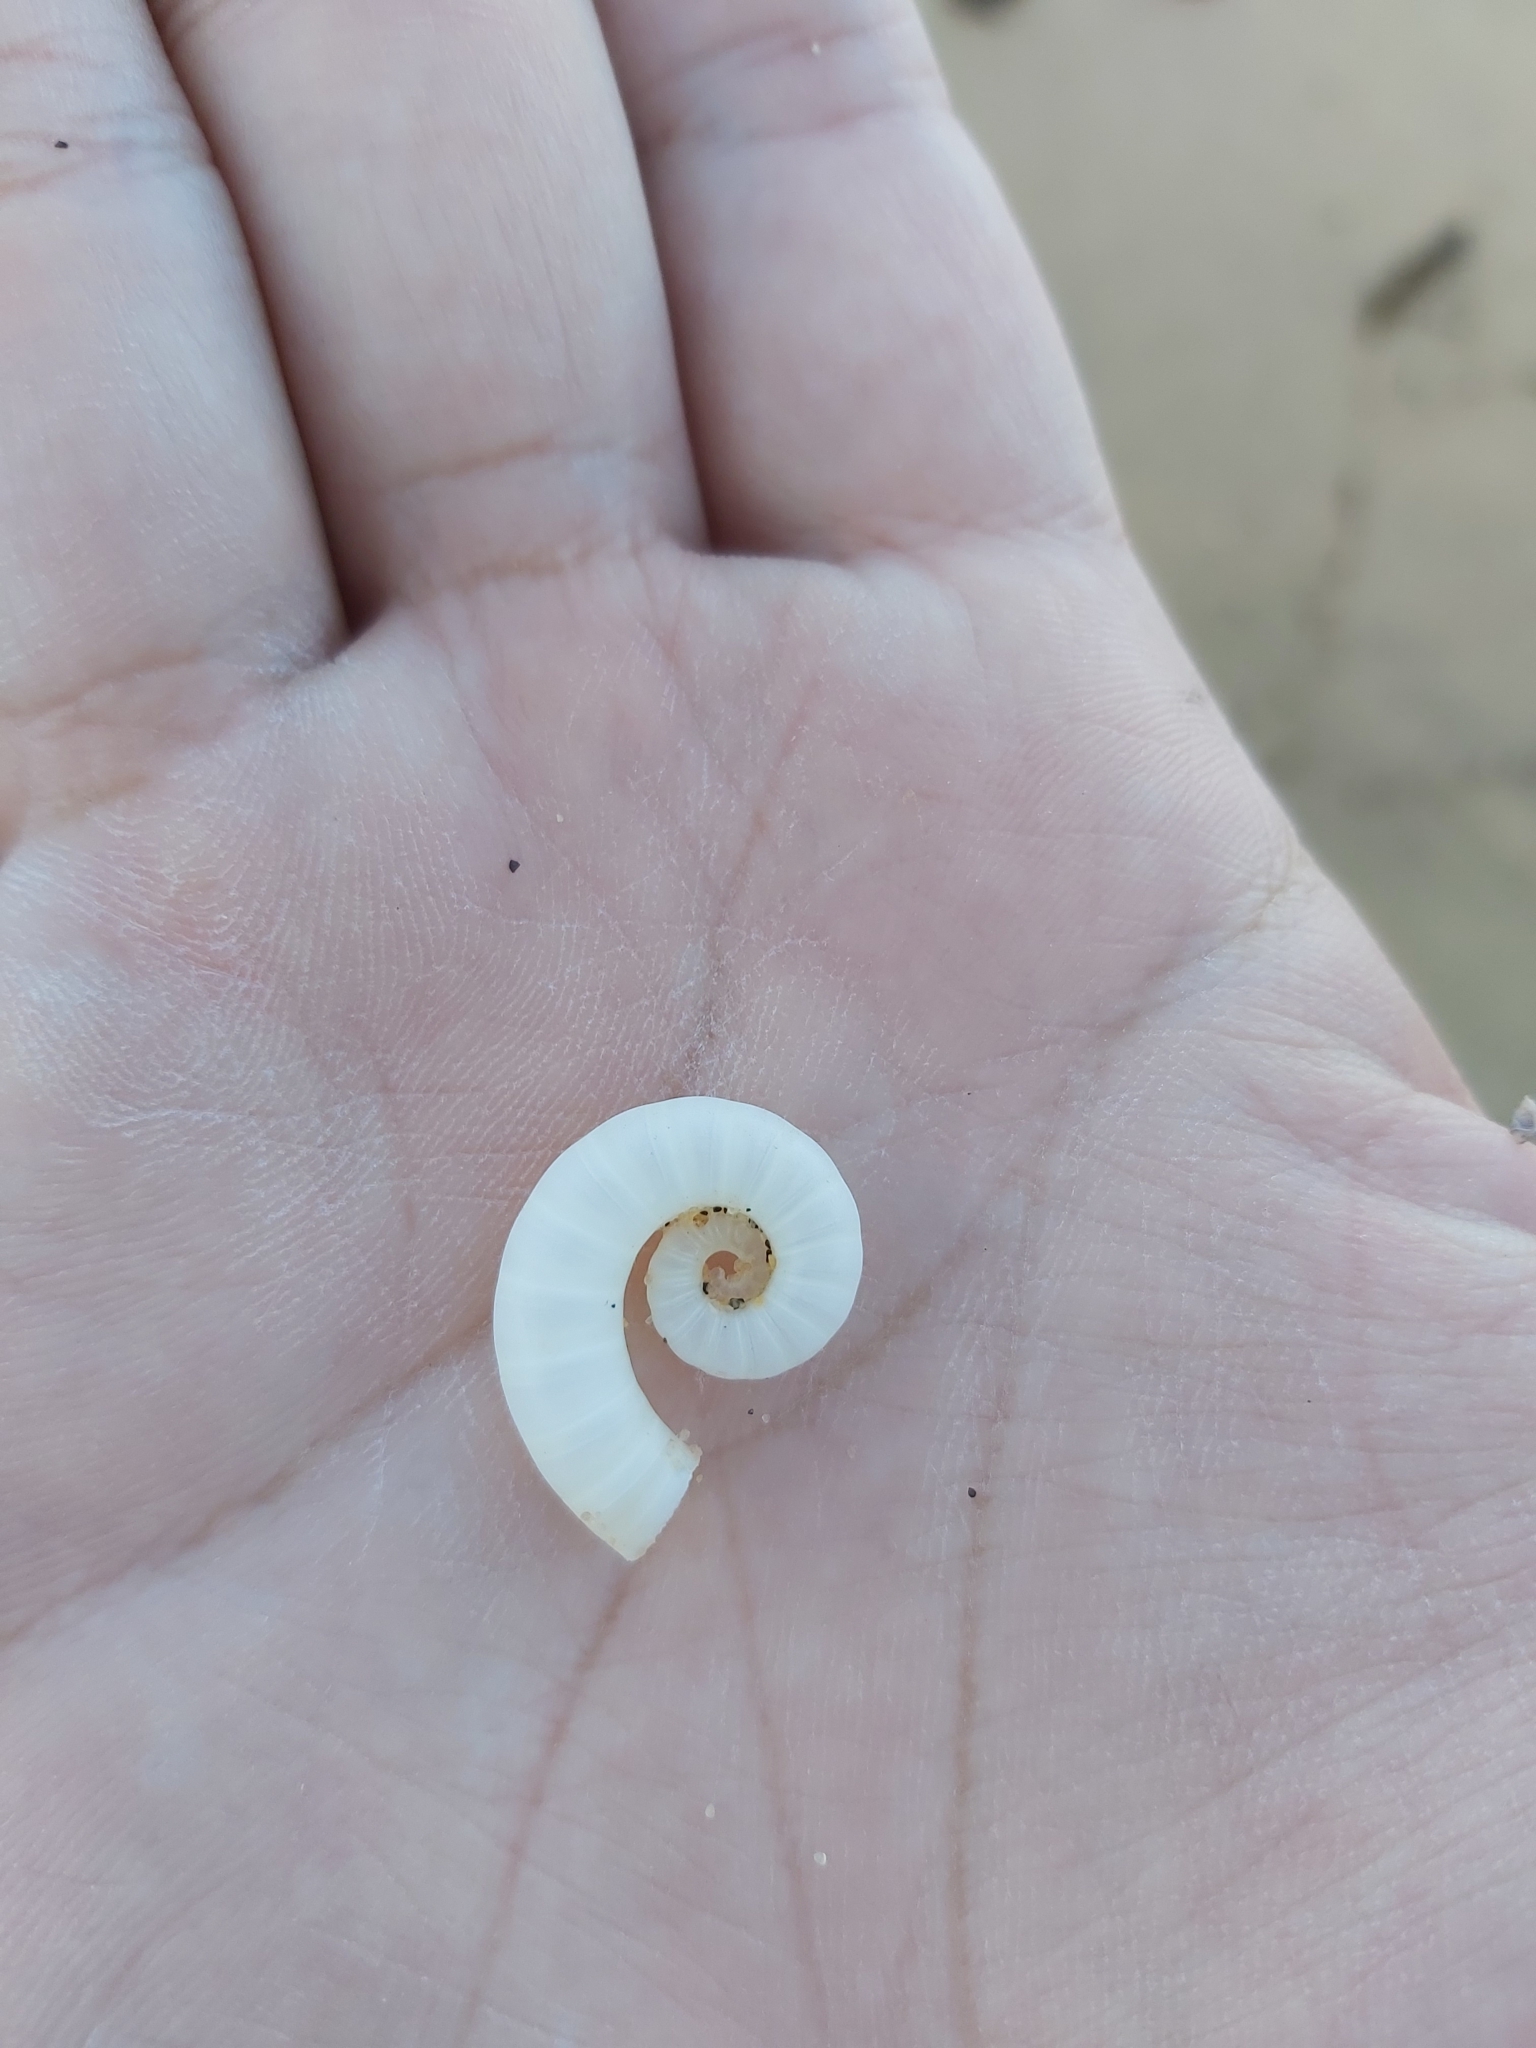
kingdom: Animalia
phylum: Mollusca
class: Cephalopoda
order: Spirulida
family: Spirulidae
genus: Spirula
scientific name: Spirula spirula
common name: Ram's horn squid
